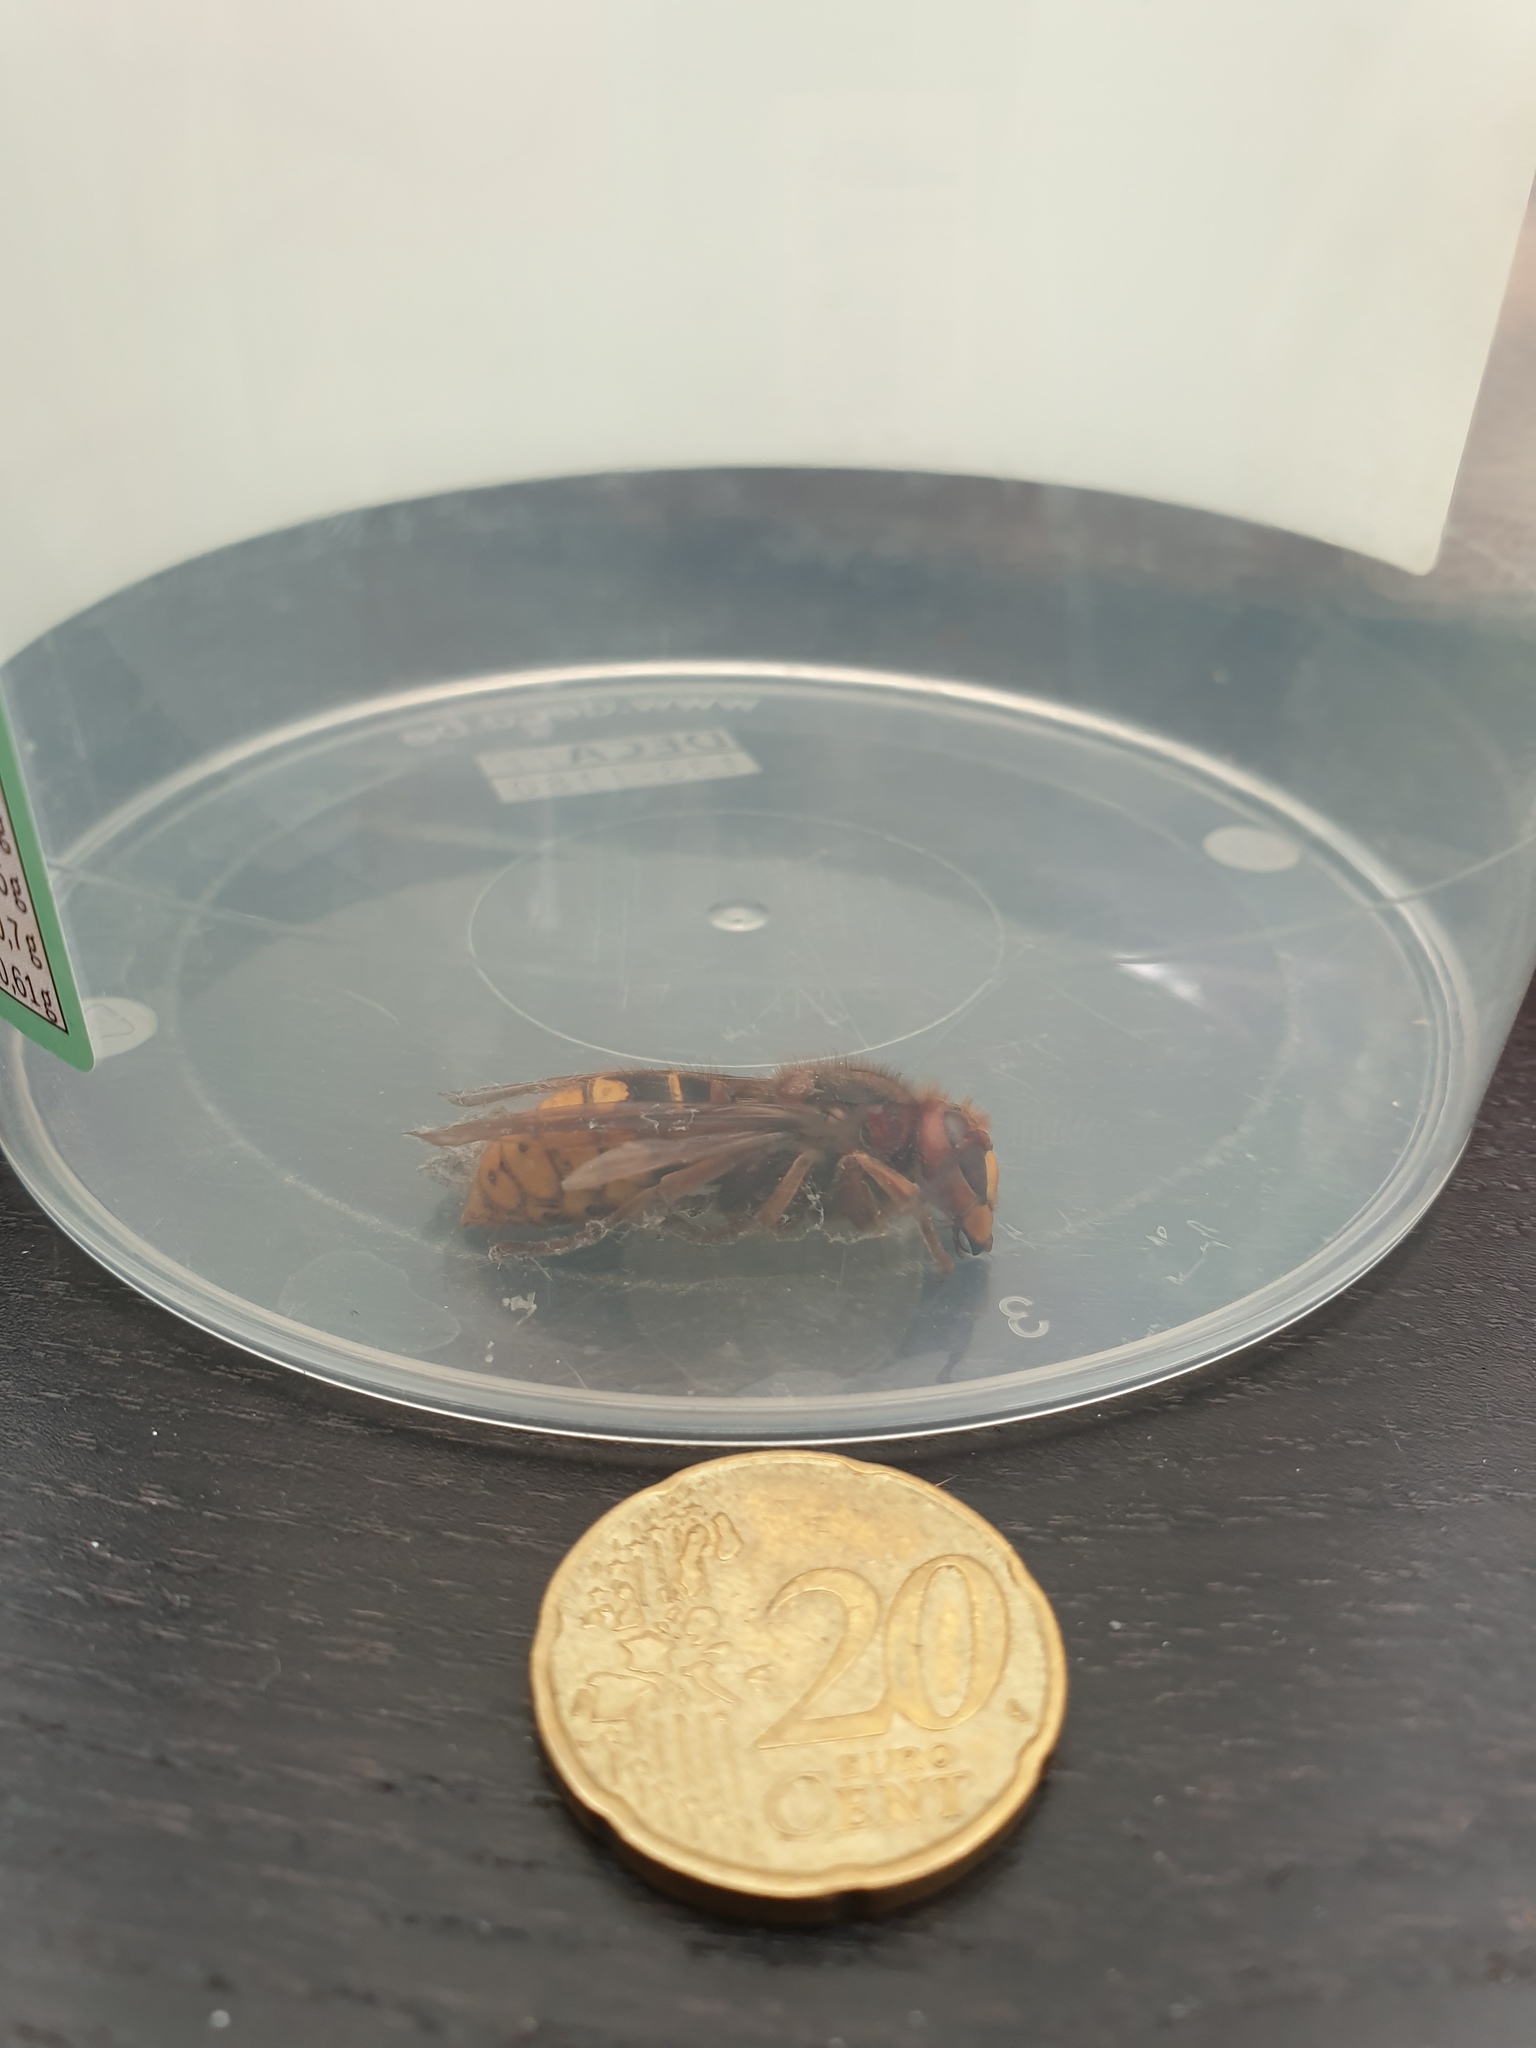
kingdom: Animalia
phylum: Arthropoda
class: Insecta
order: Hymenoptera
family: Vespidae
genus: Vespa
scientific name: Vespa crabro
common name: Hornet
